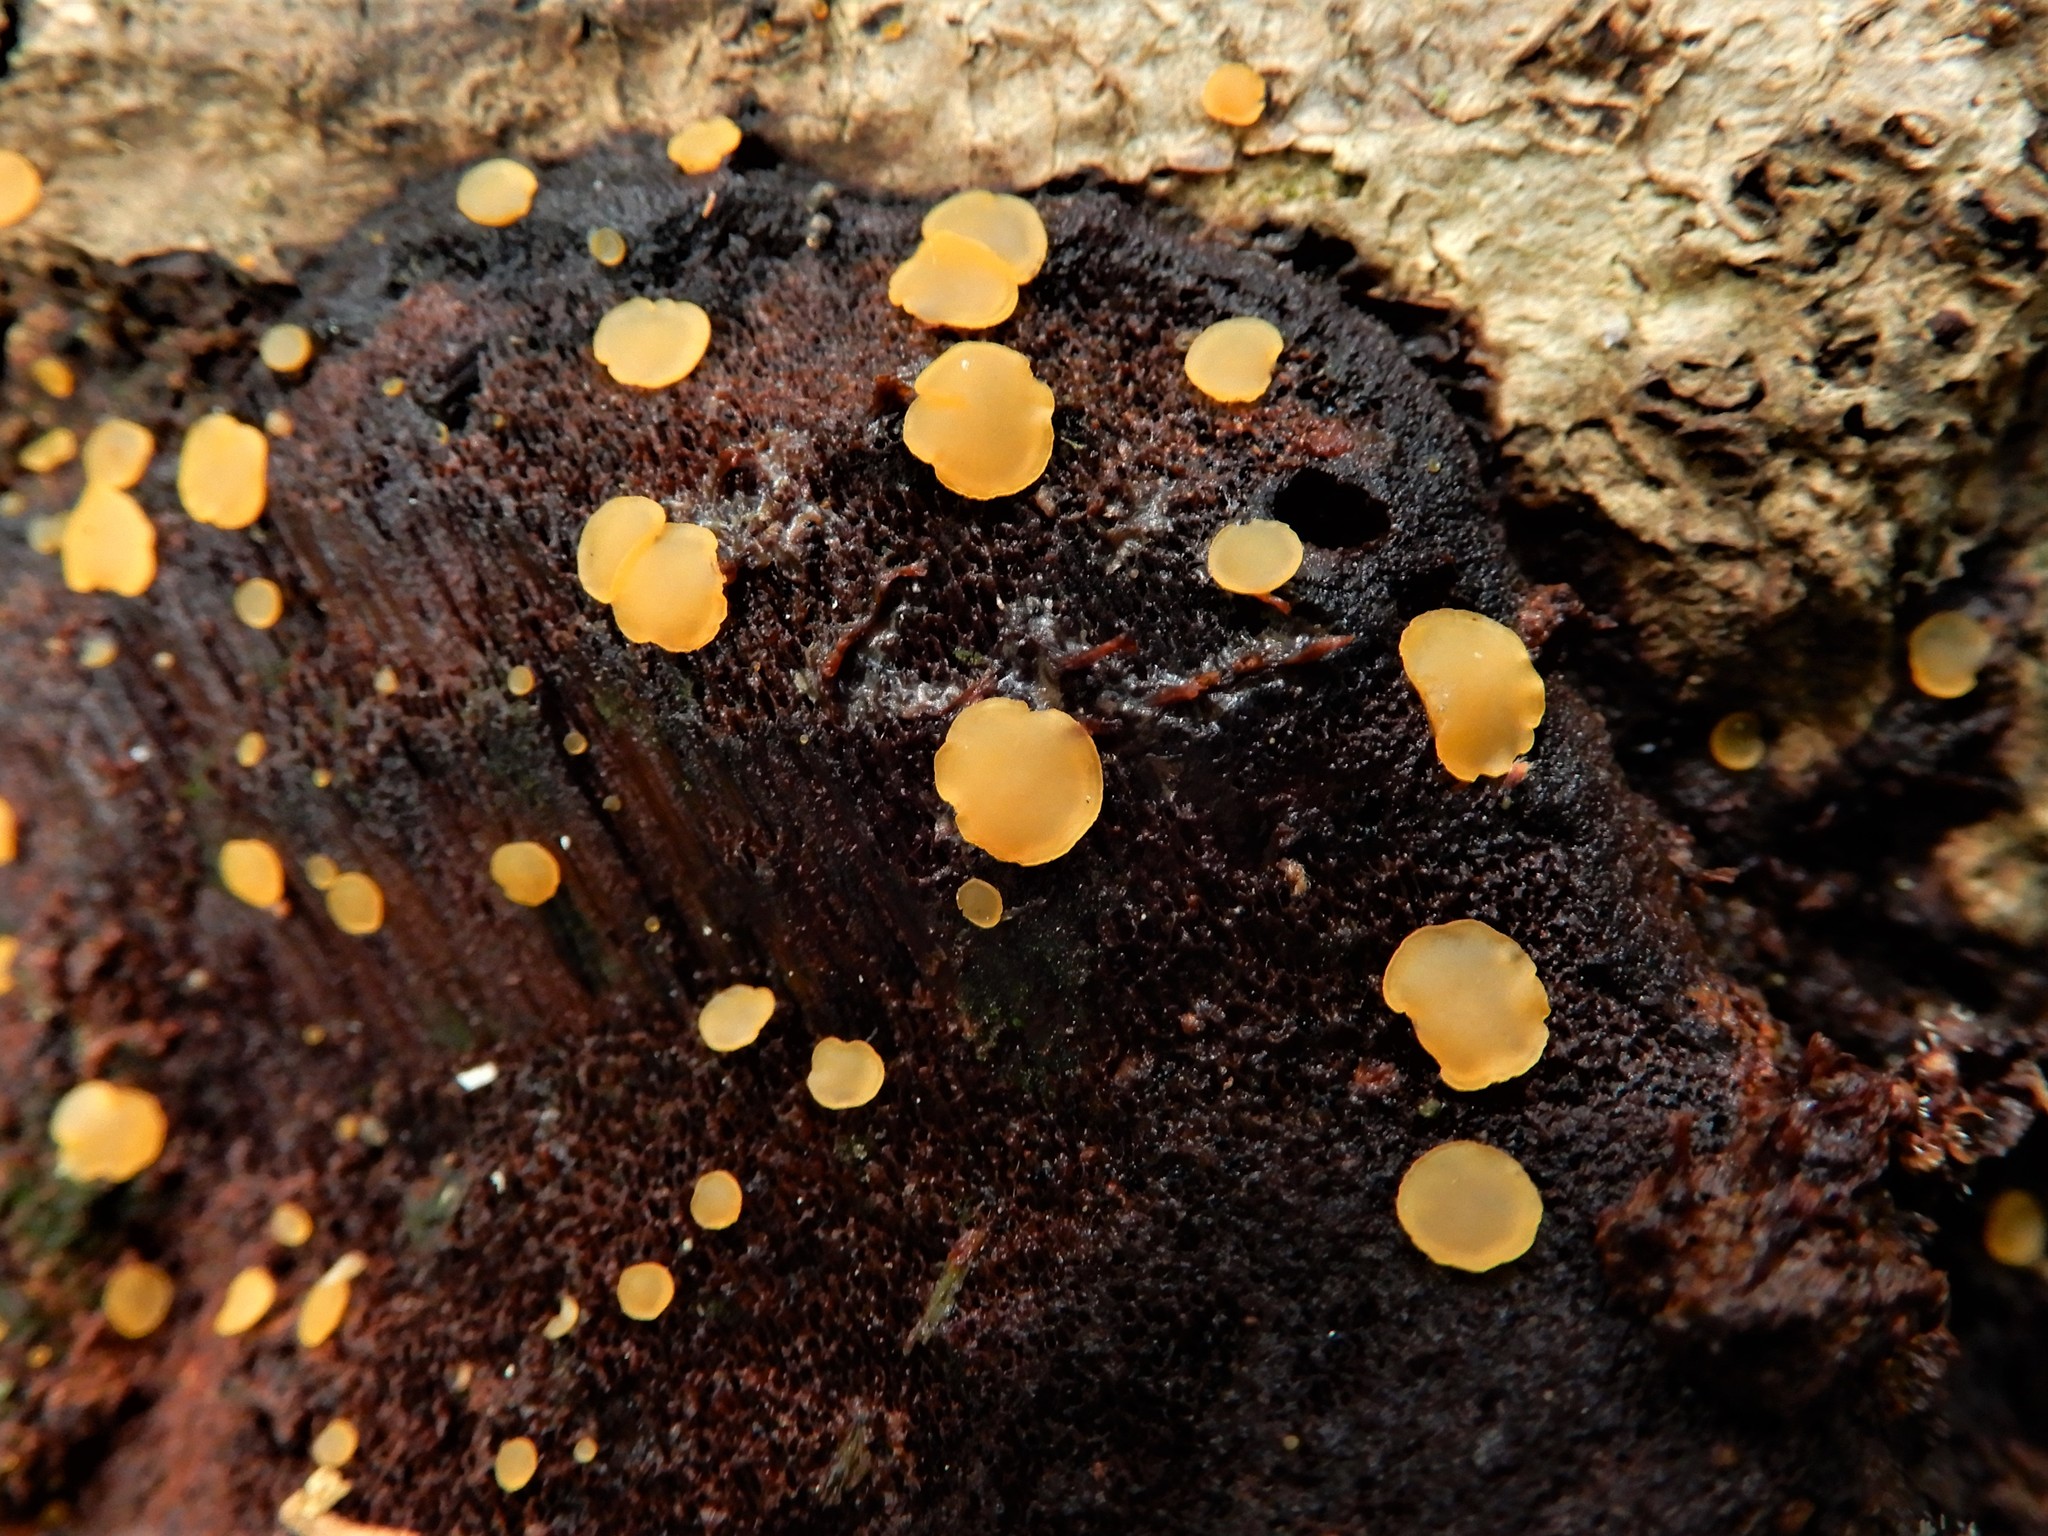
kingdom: Fungi
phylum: Ascomycota
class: Orbiliomycetes
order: Orbiliales
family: Orbiliaceae
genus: Orbilia
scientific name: Orbilia
